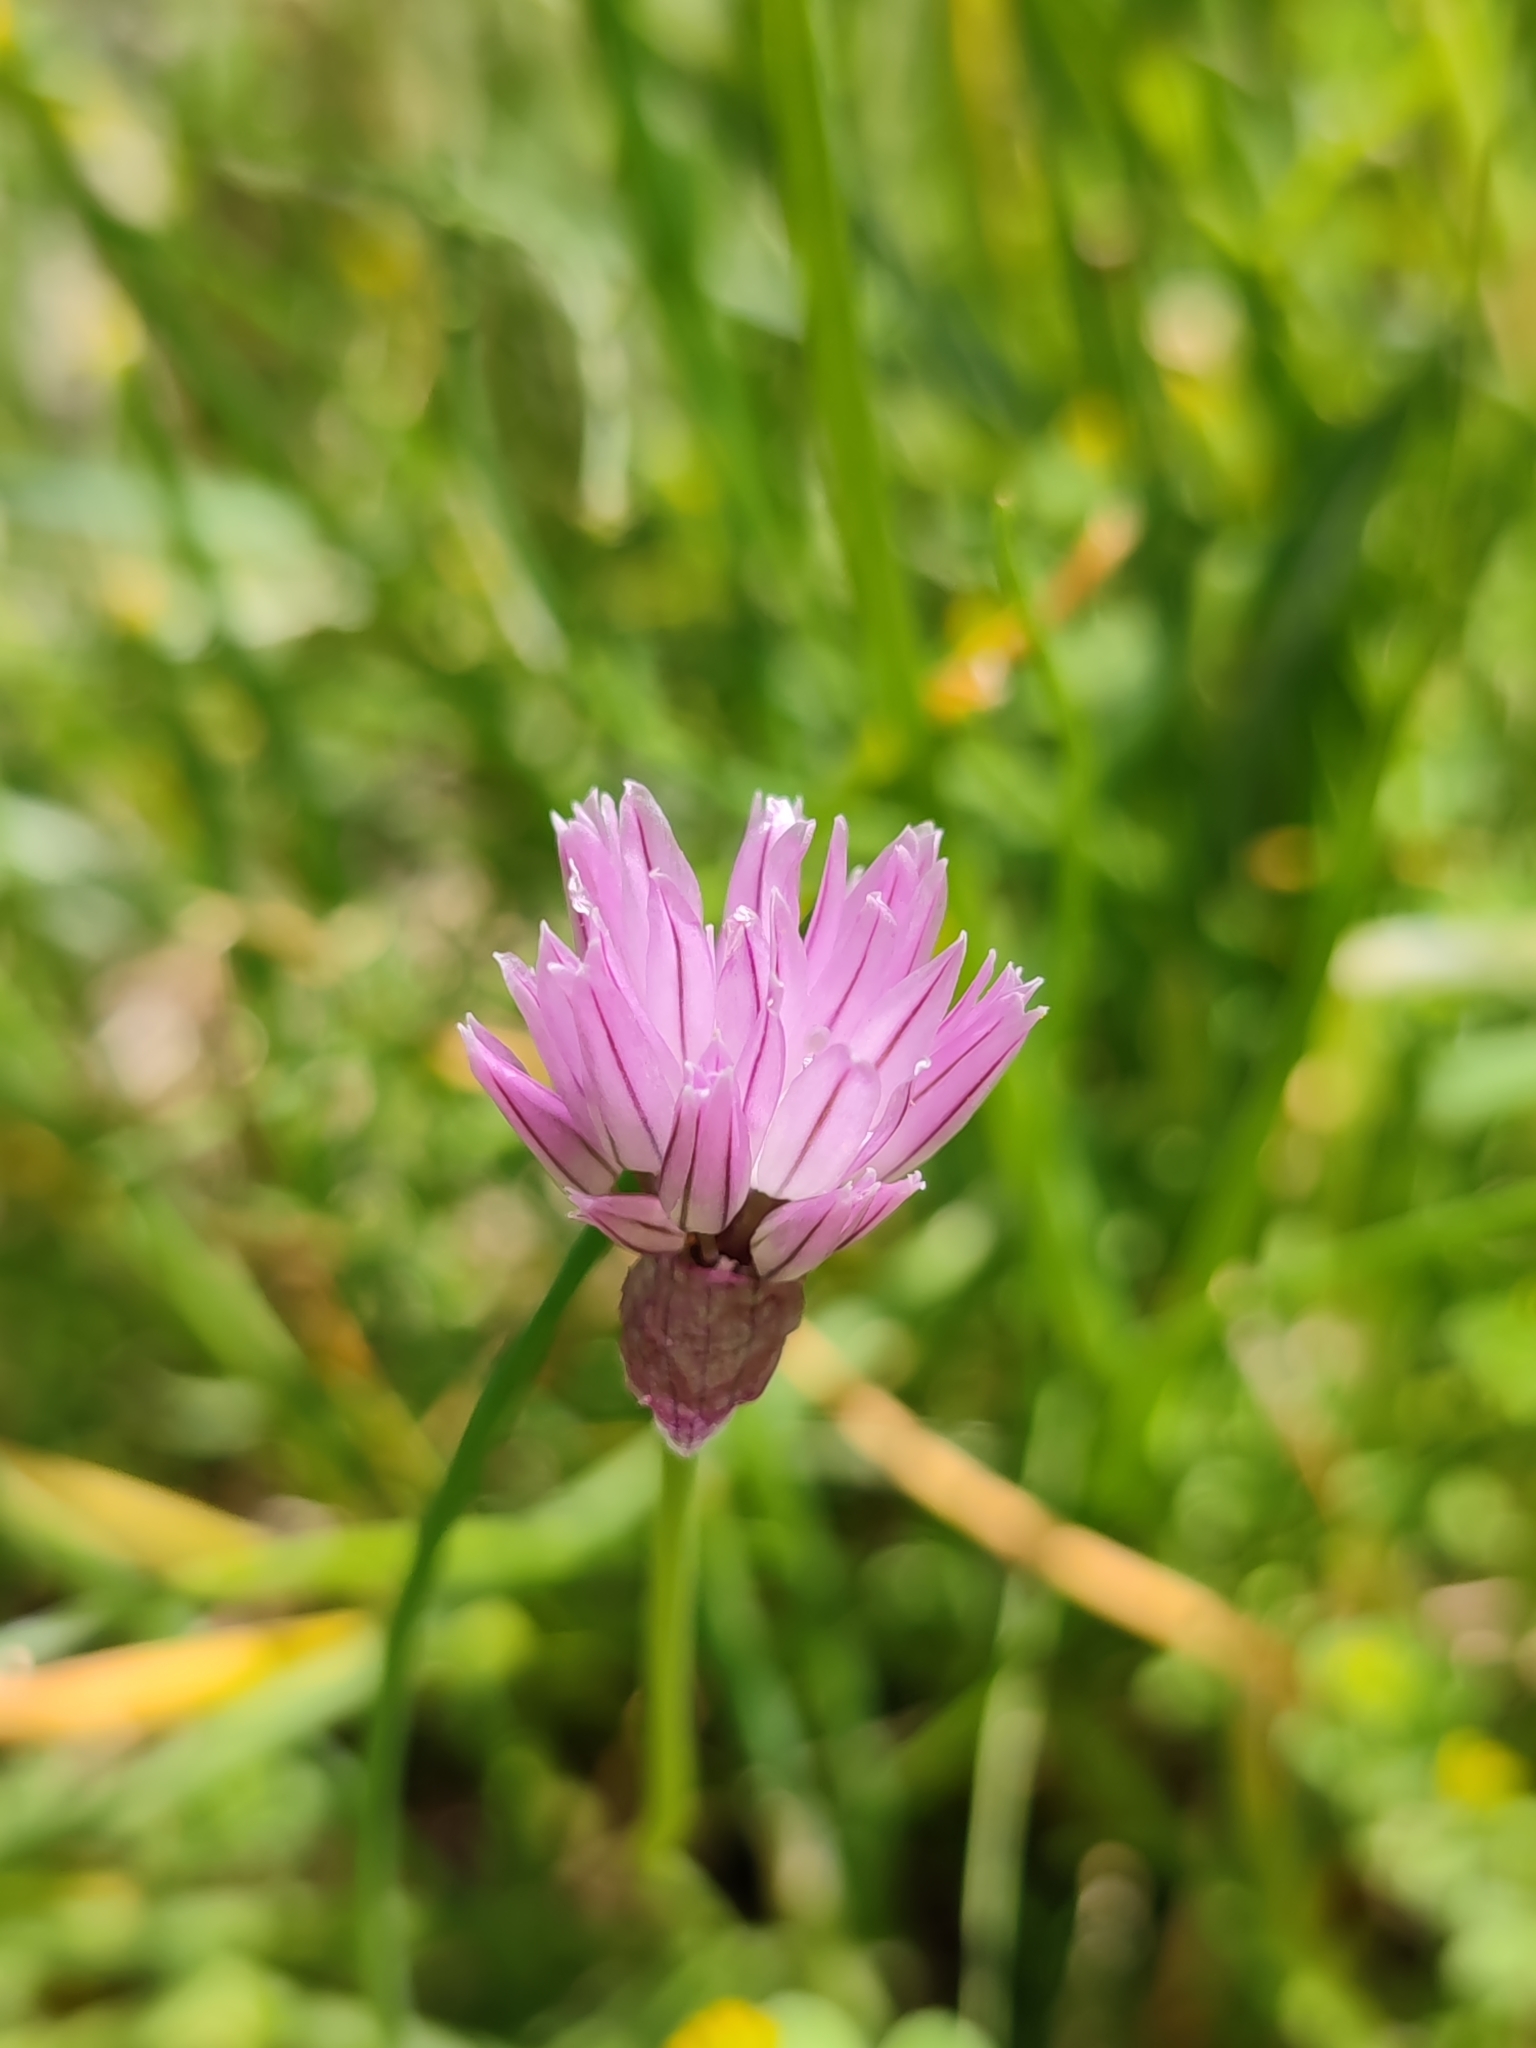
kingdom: Plantae
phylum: Tracheophyta
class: Liliopsida
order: Asparagales
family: Amaryllidaceae
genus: Allium
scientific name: Allium schoenoprasum
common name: Chives
